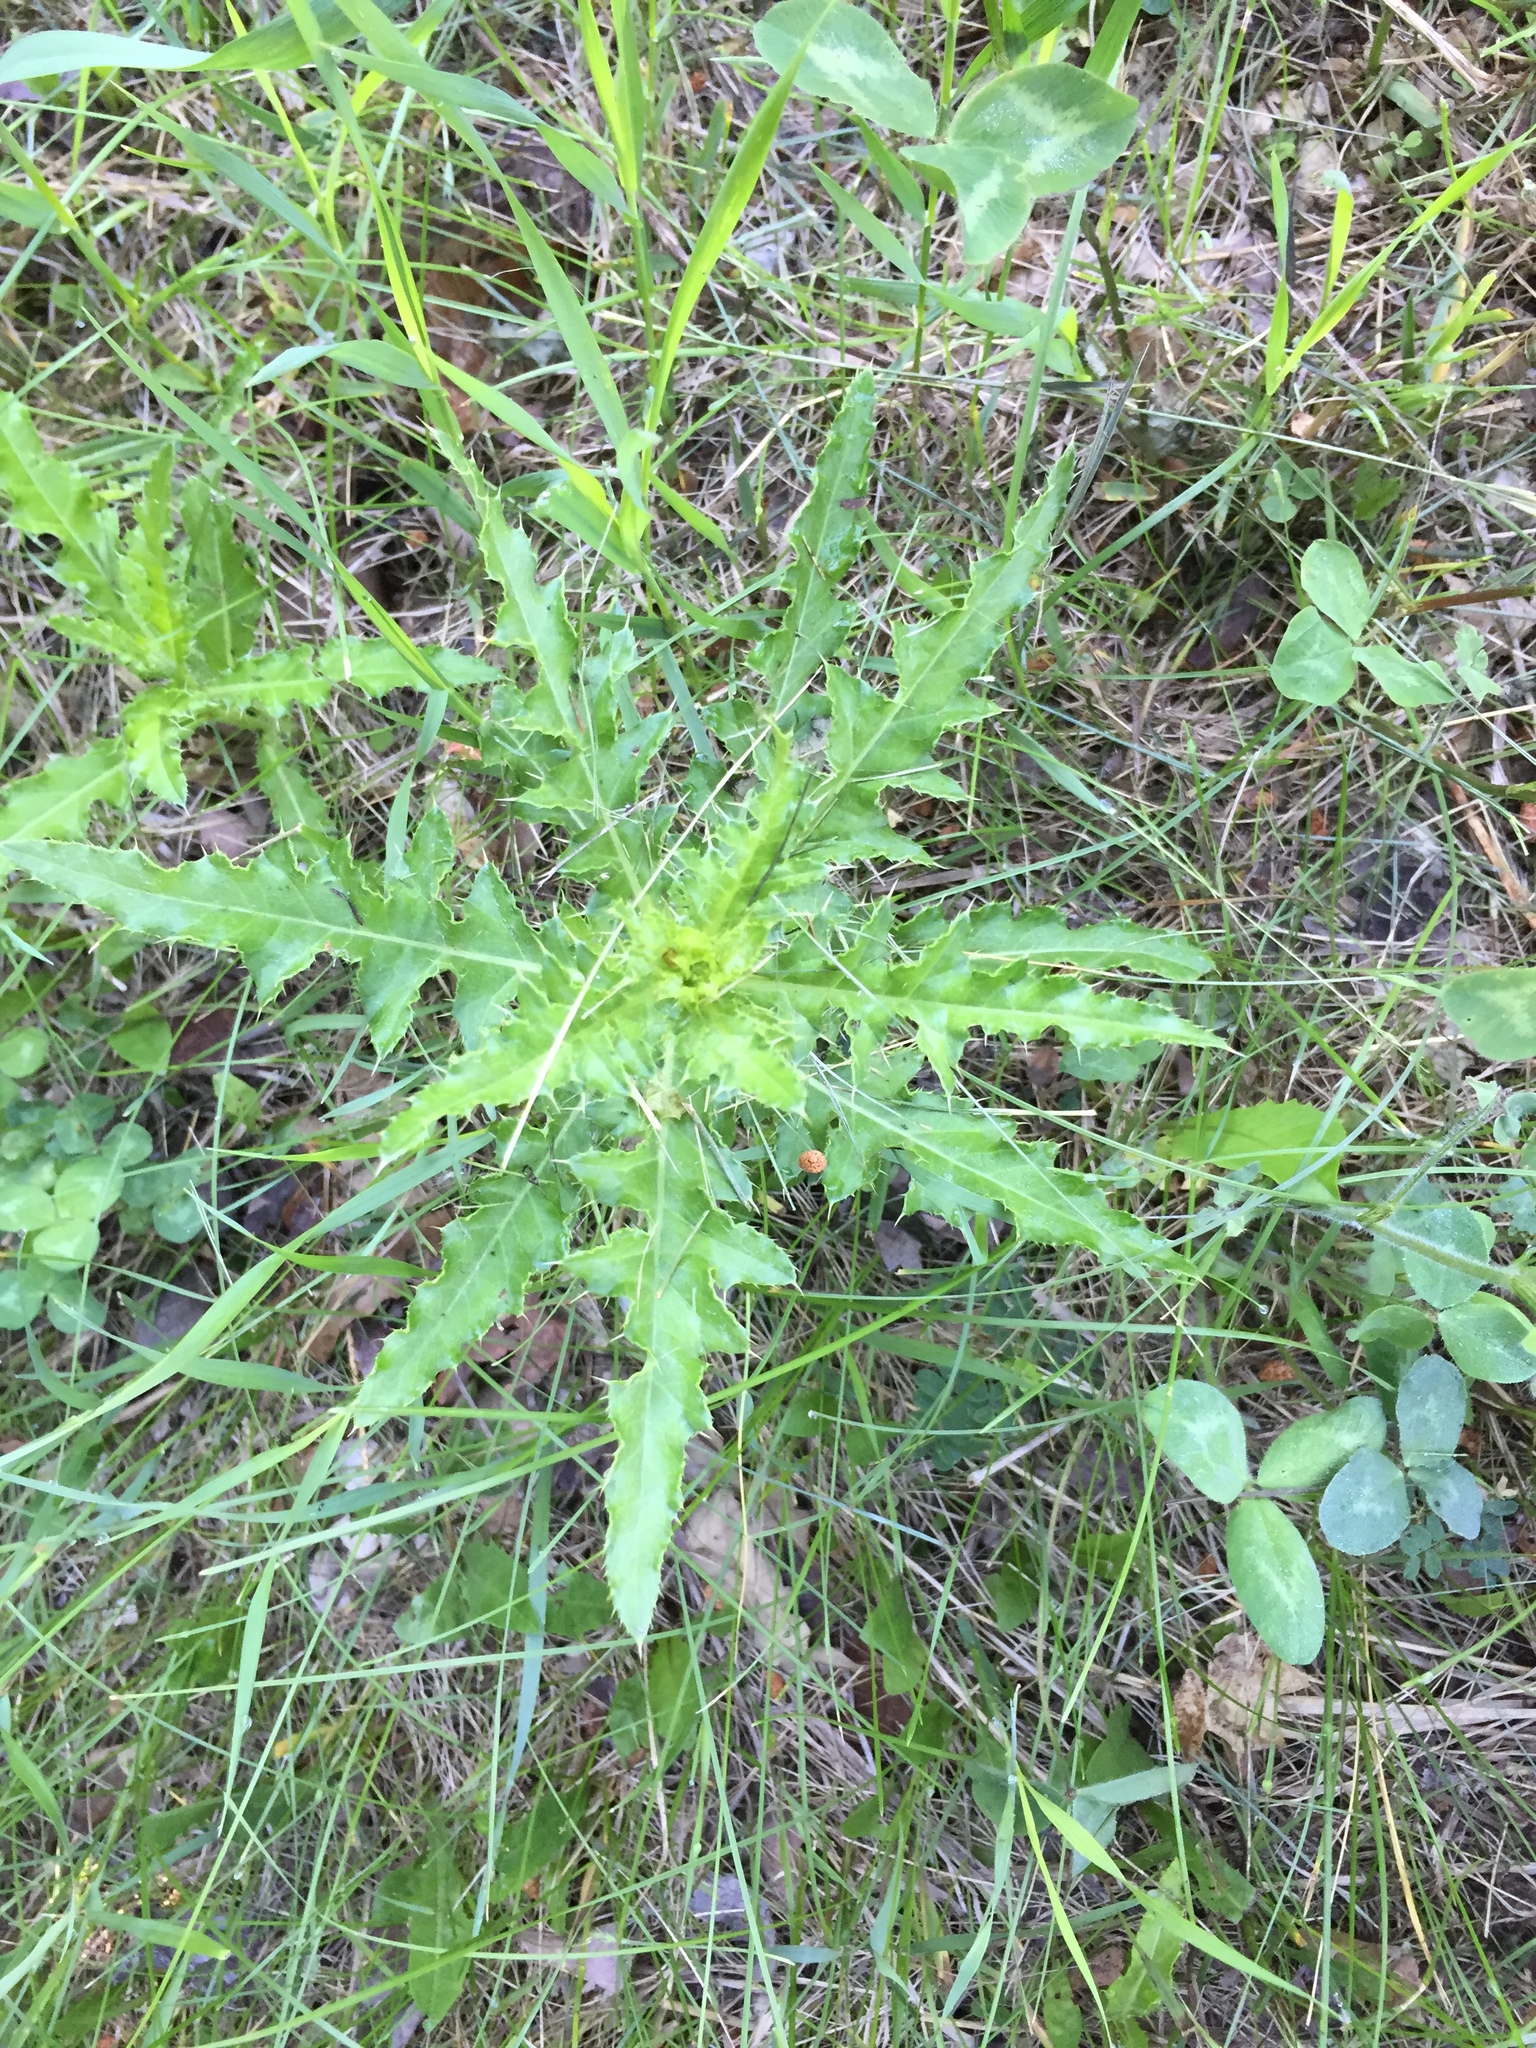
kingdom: Plantae
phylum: Tracheophyta
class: Magnoliopsida
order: Asterales
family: Asteraceae
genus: Cirsium
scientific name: Cirsium arvense
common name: Creeping thistle
